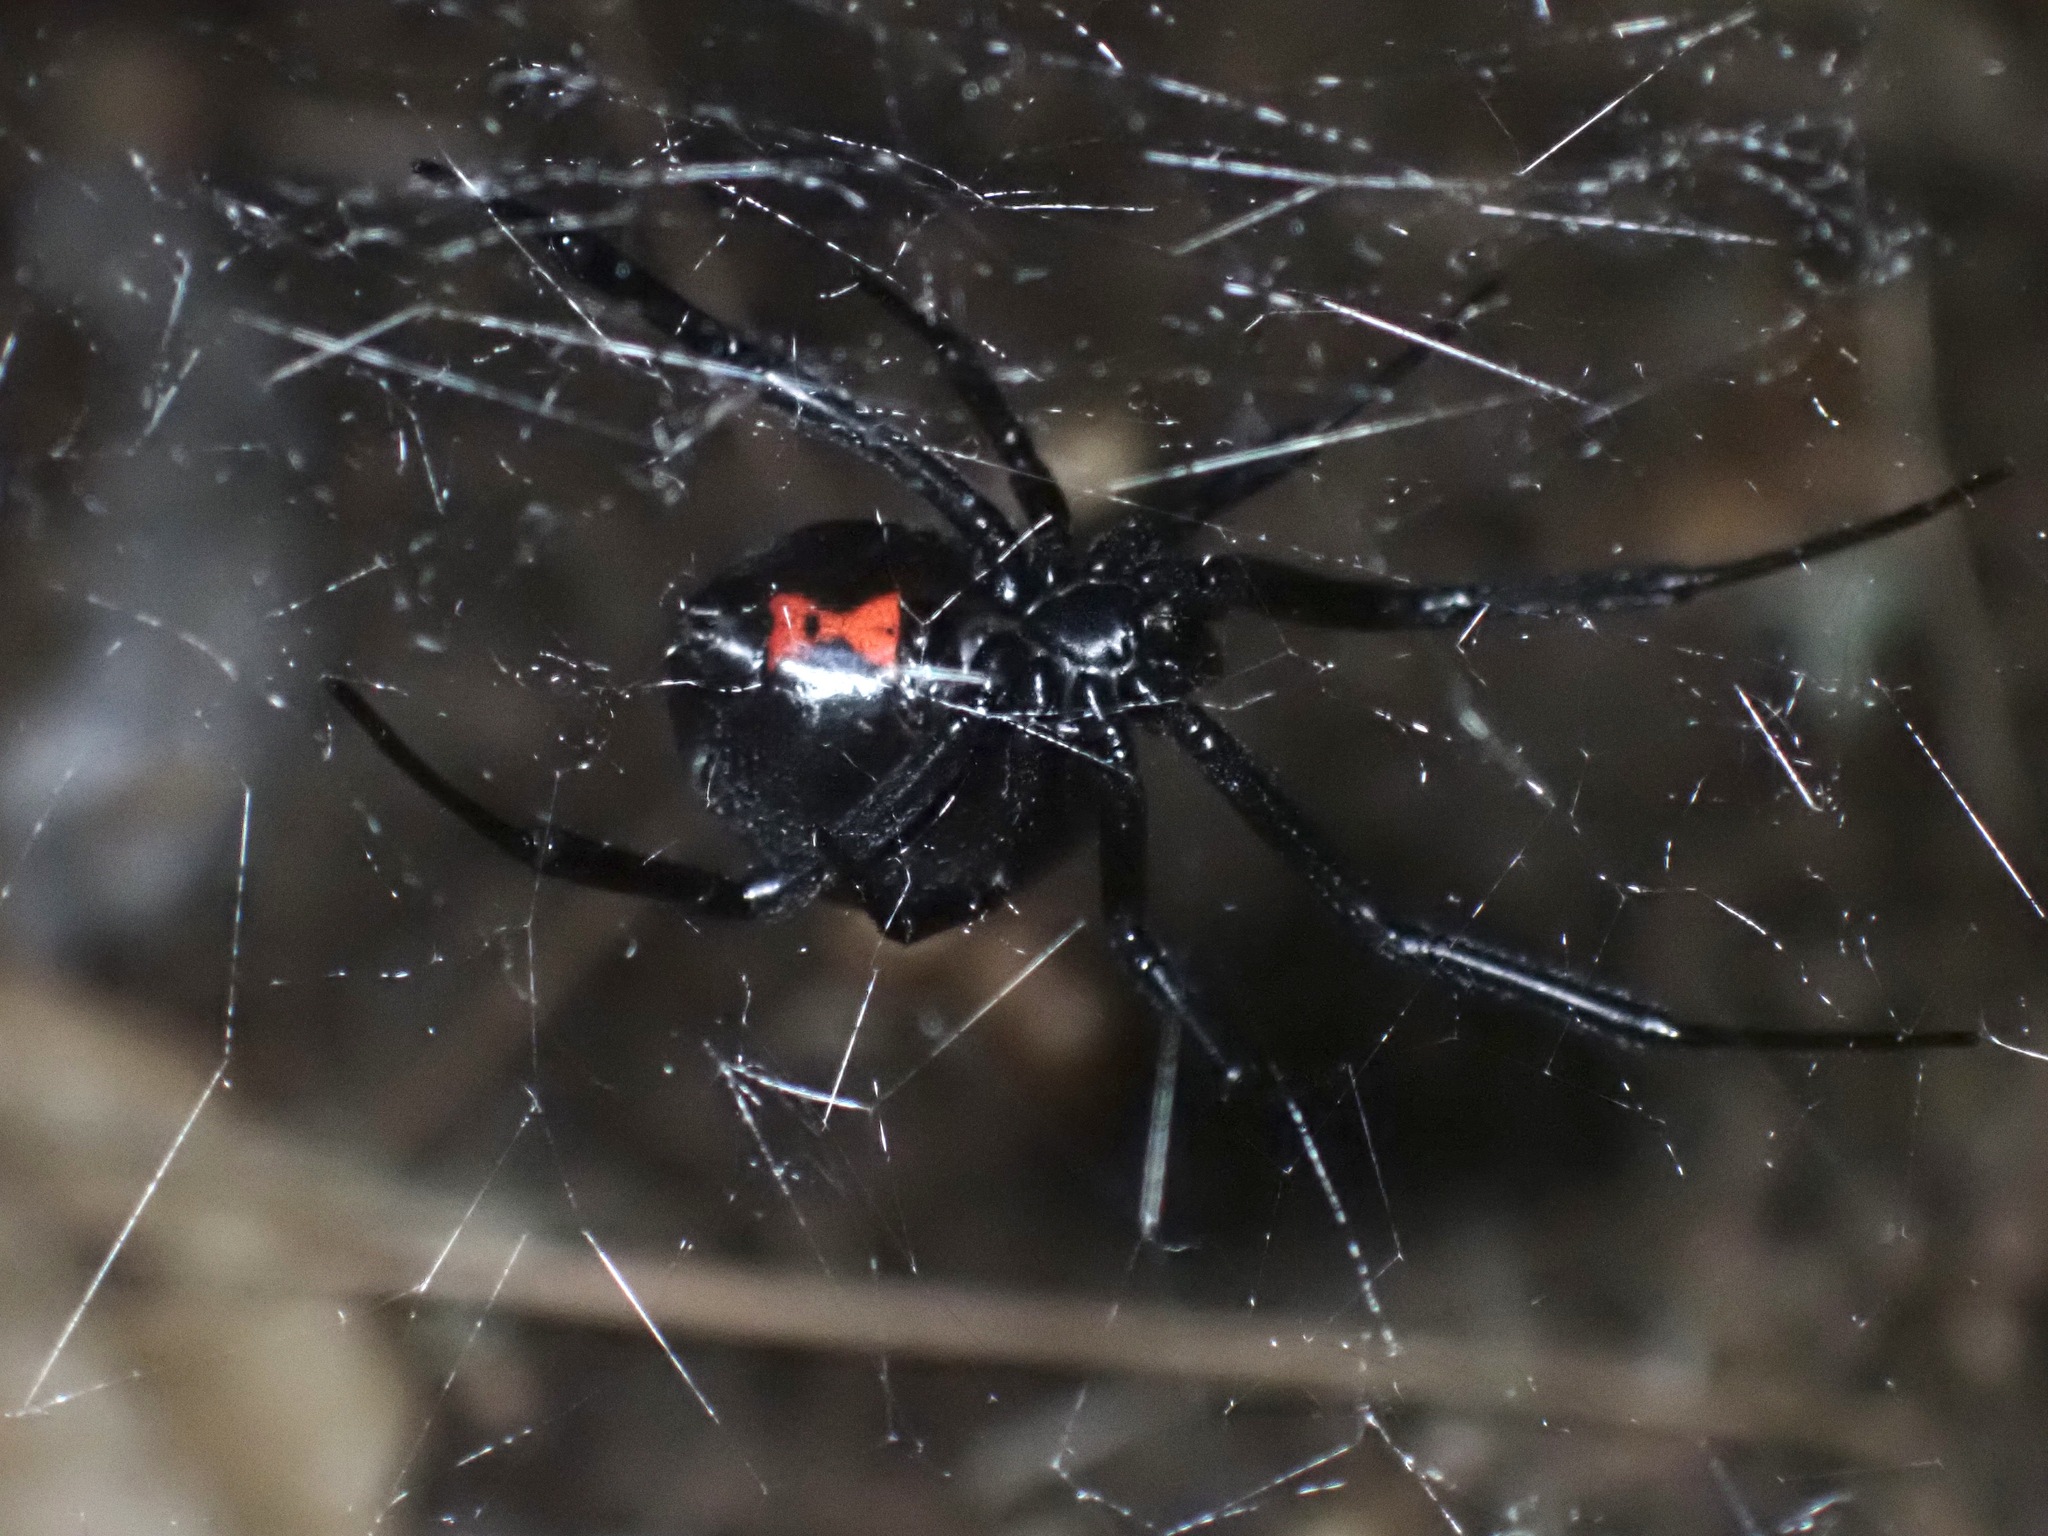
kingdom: Animalia
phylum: Arthropoda
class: Arachnida
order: Araneae
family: Theridiidae
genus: Latrodectus
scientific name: Latrodectus hesperus
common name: Western black widow
